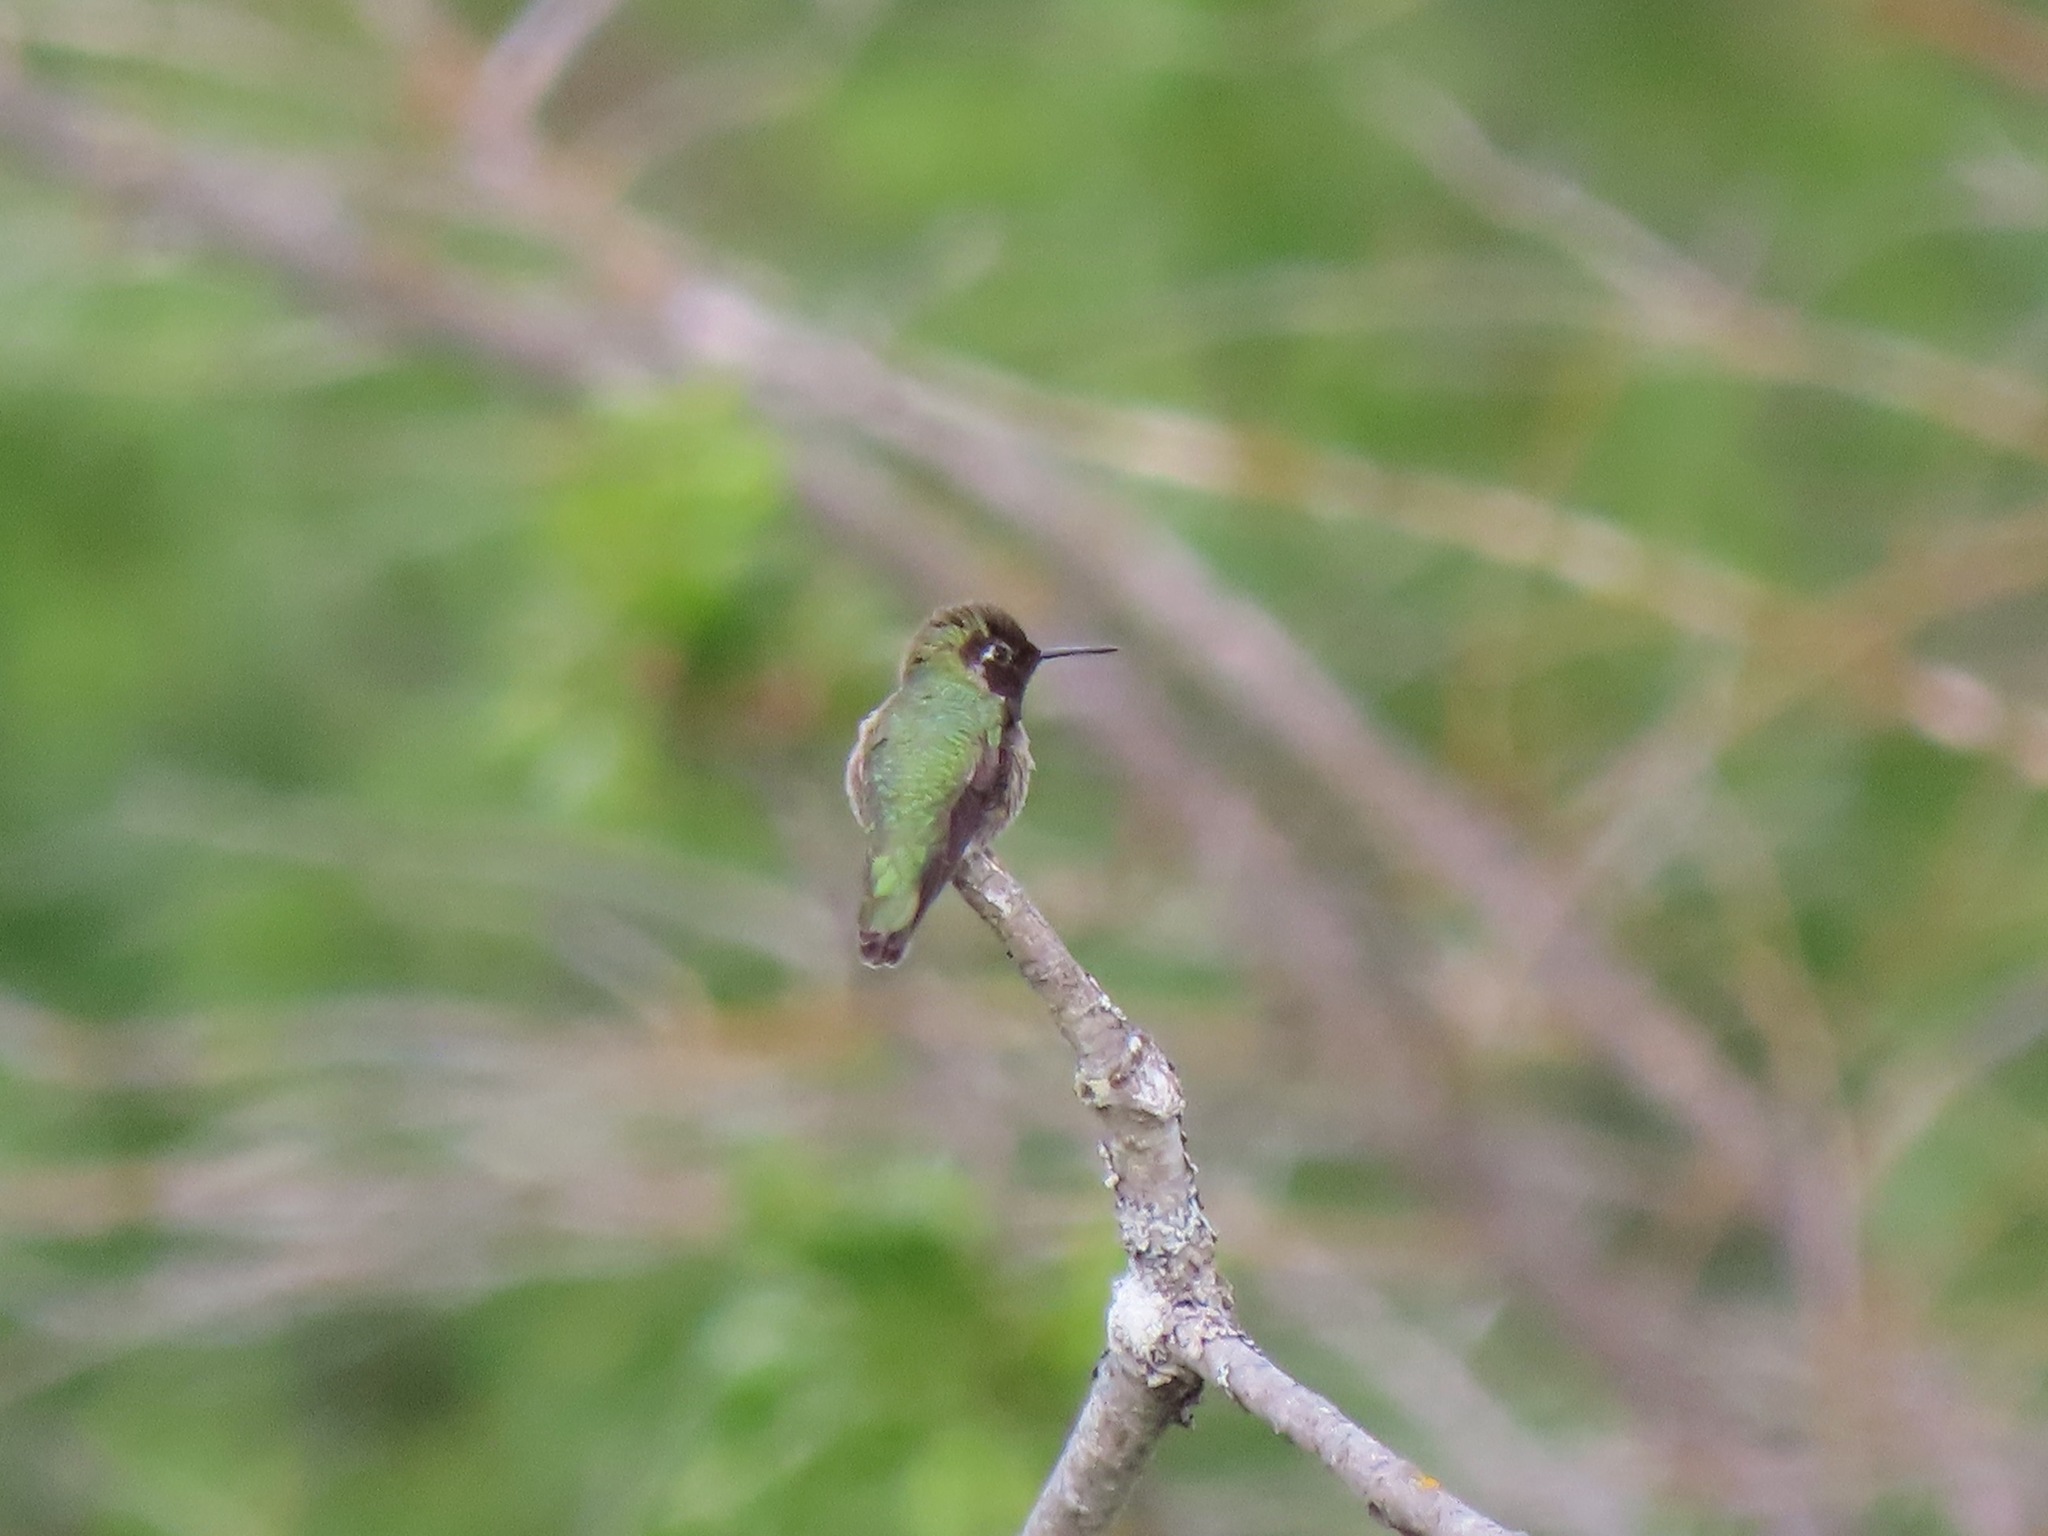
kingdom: Animalia
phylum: Chordata
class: Aves
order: Apodiformes
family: Trochilidae
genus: Calypte
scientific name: Calypte anna
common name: Anna's hummingbird
